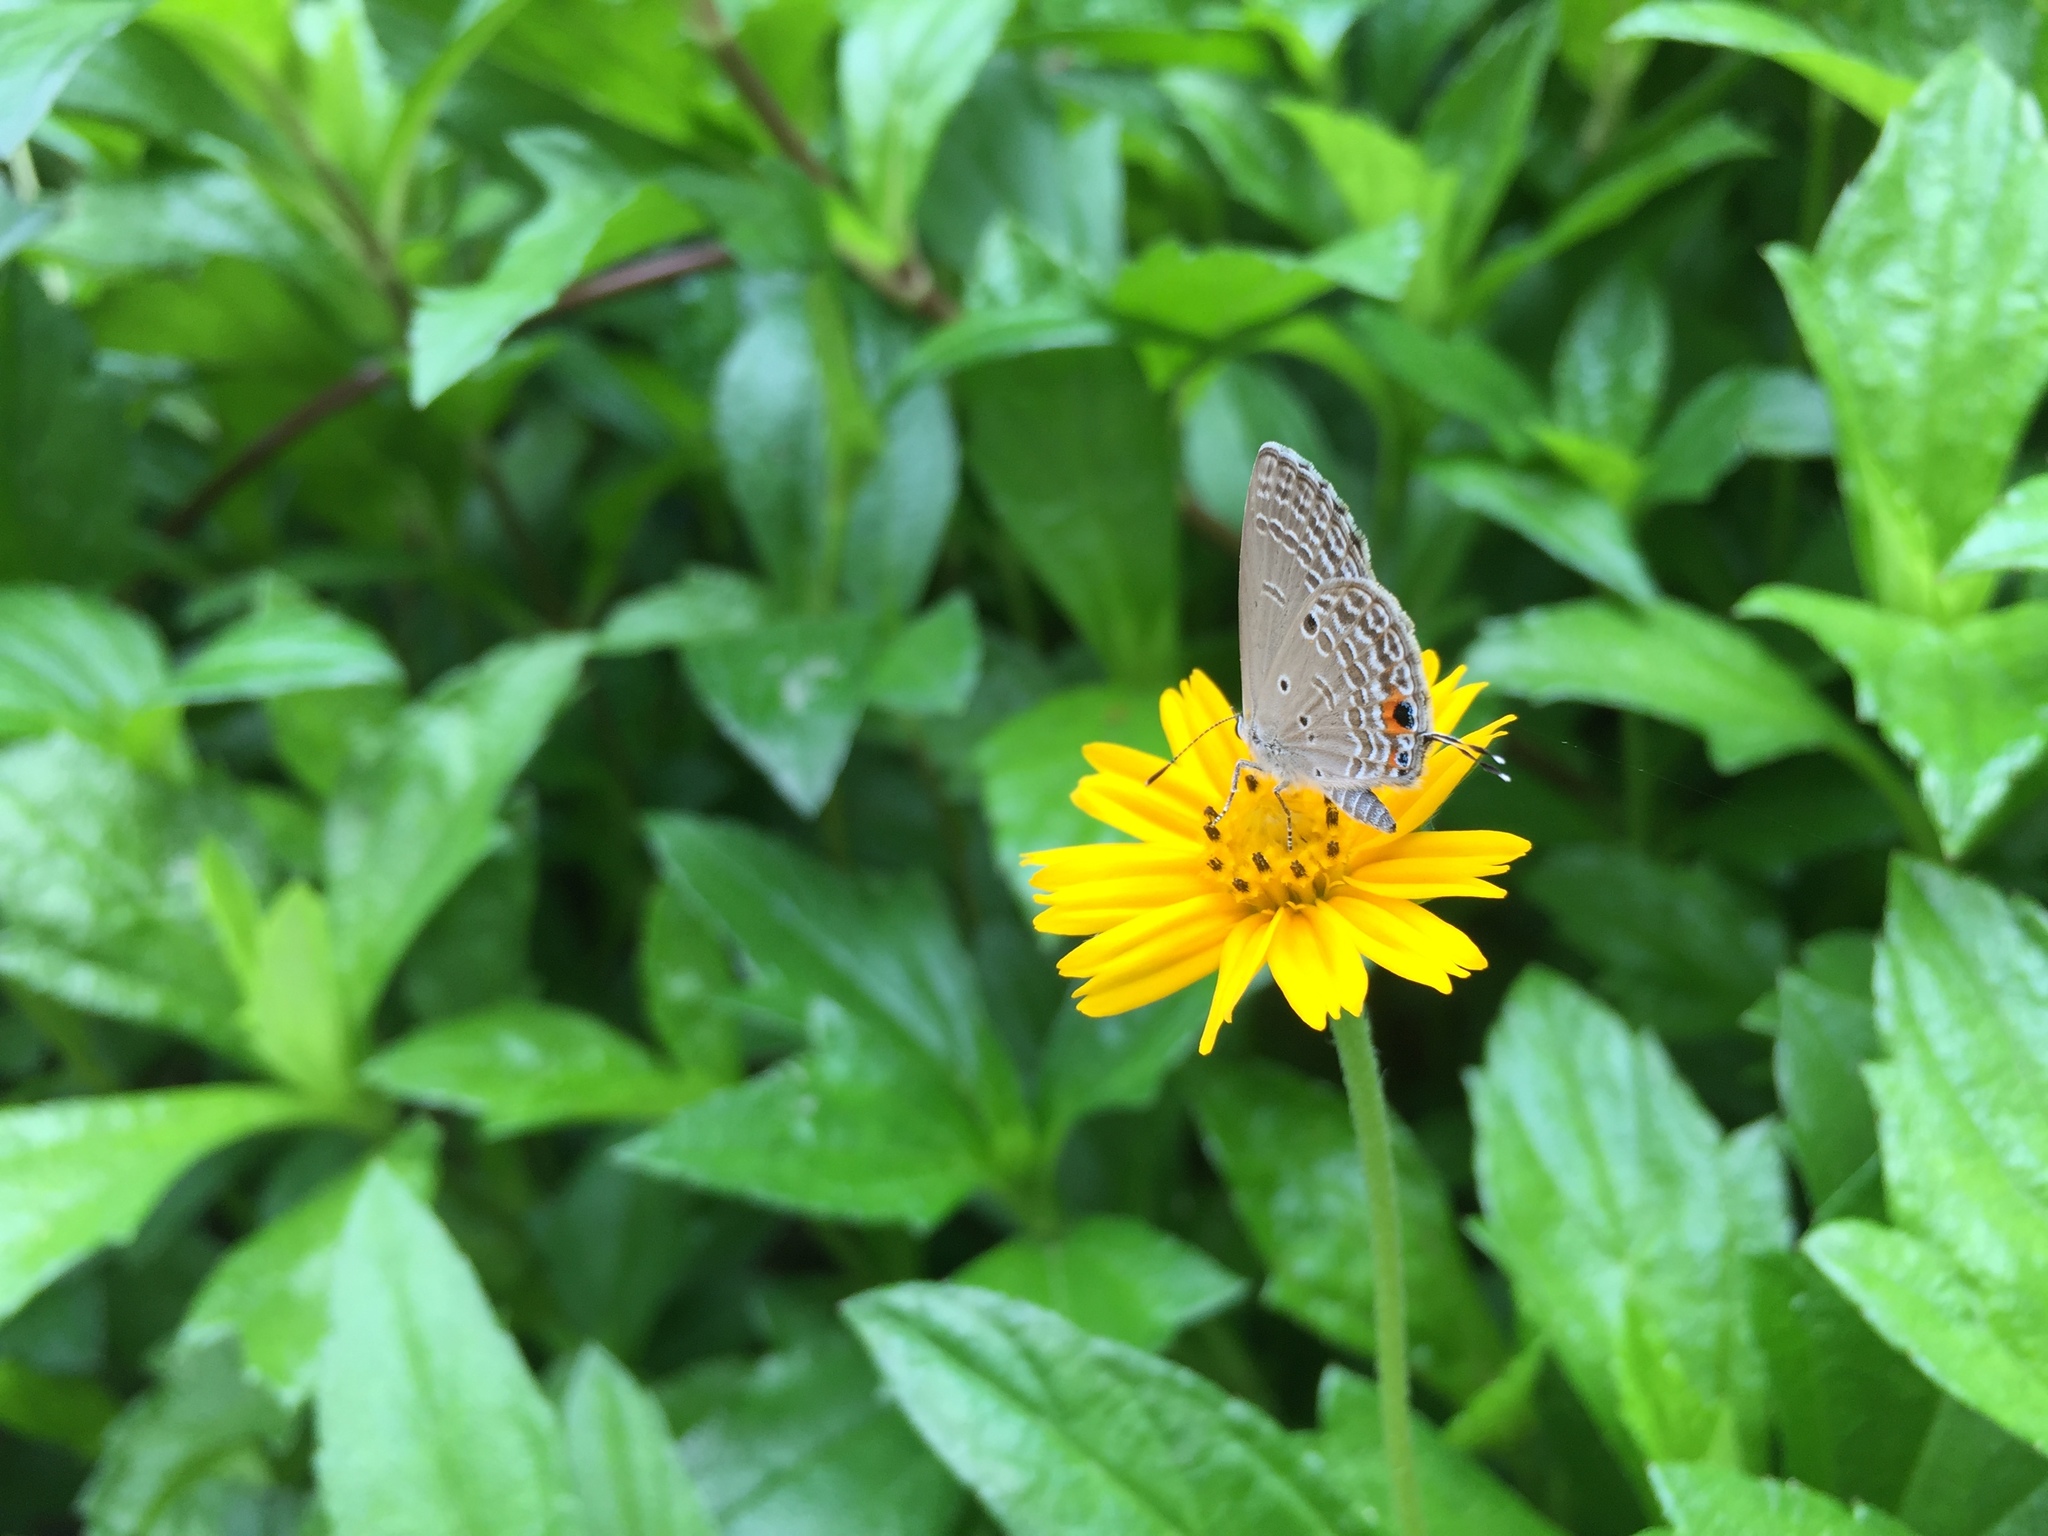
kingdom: Animalia
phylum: Arthropoda
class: Insecta
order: Lepidoptera
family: Lycaenidae
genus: Luthrodes
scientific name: Luthrodes pandava
